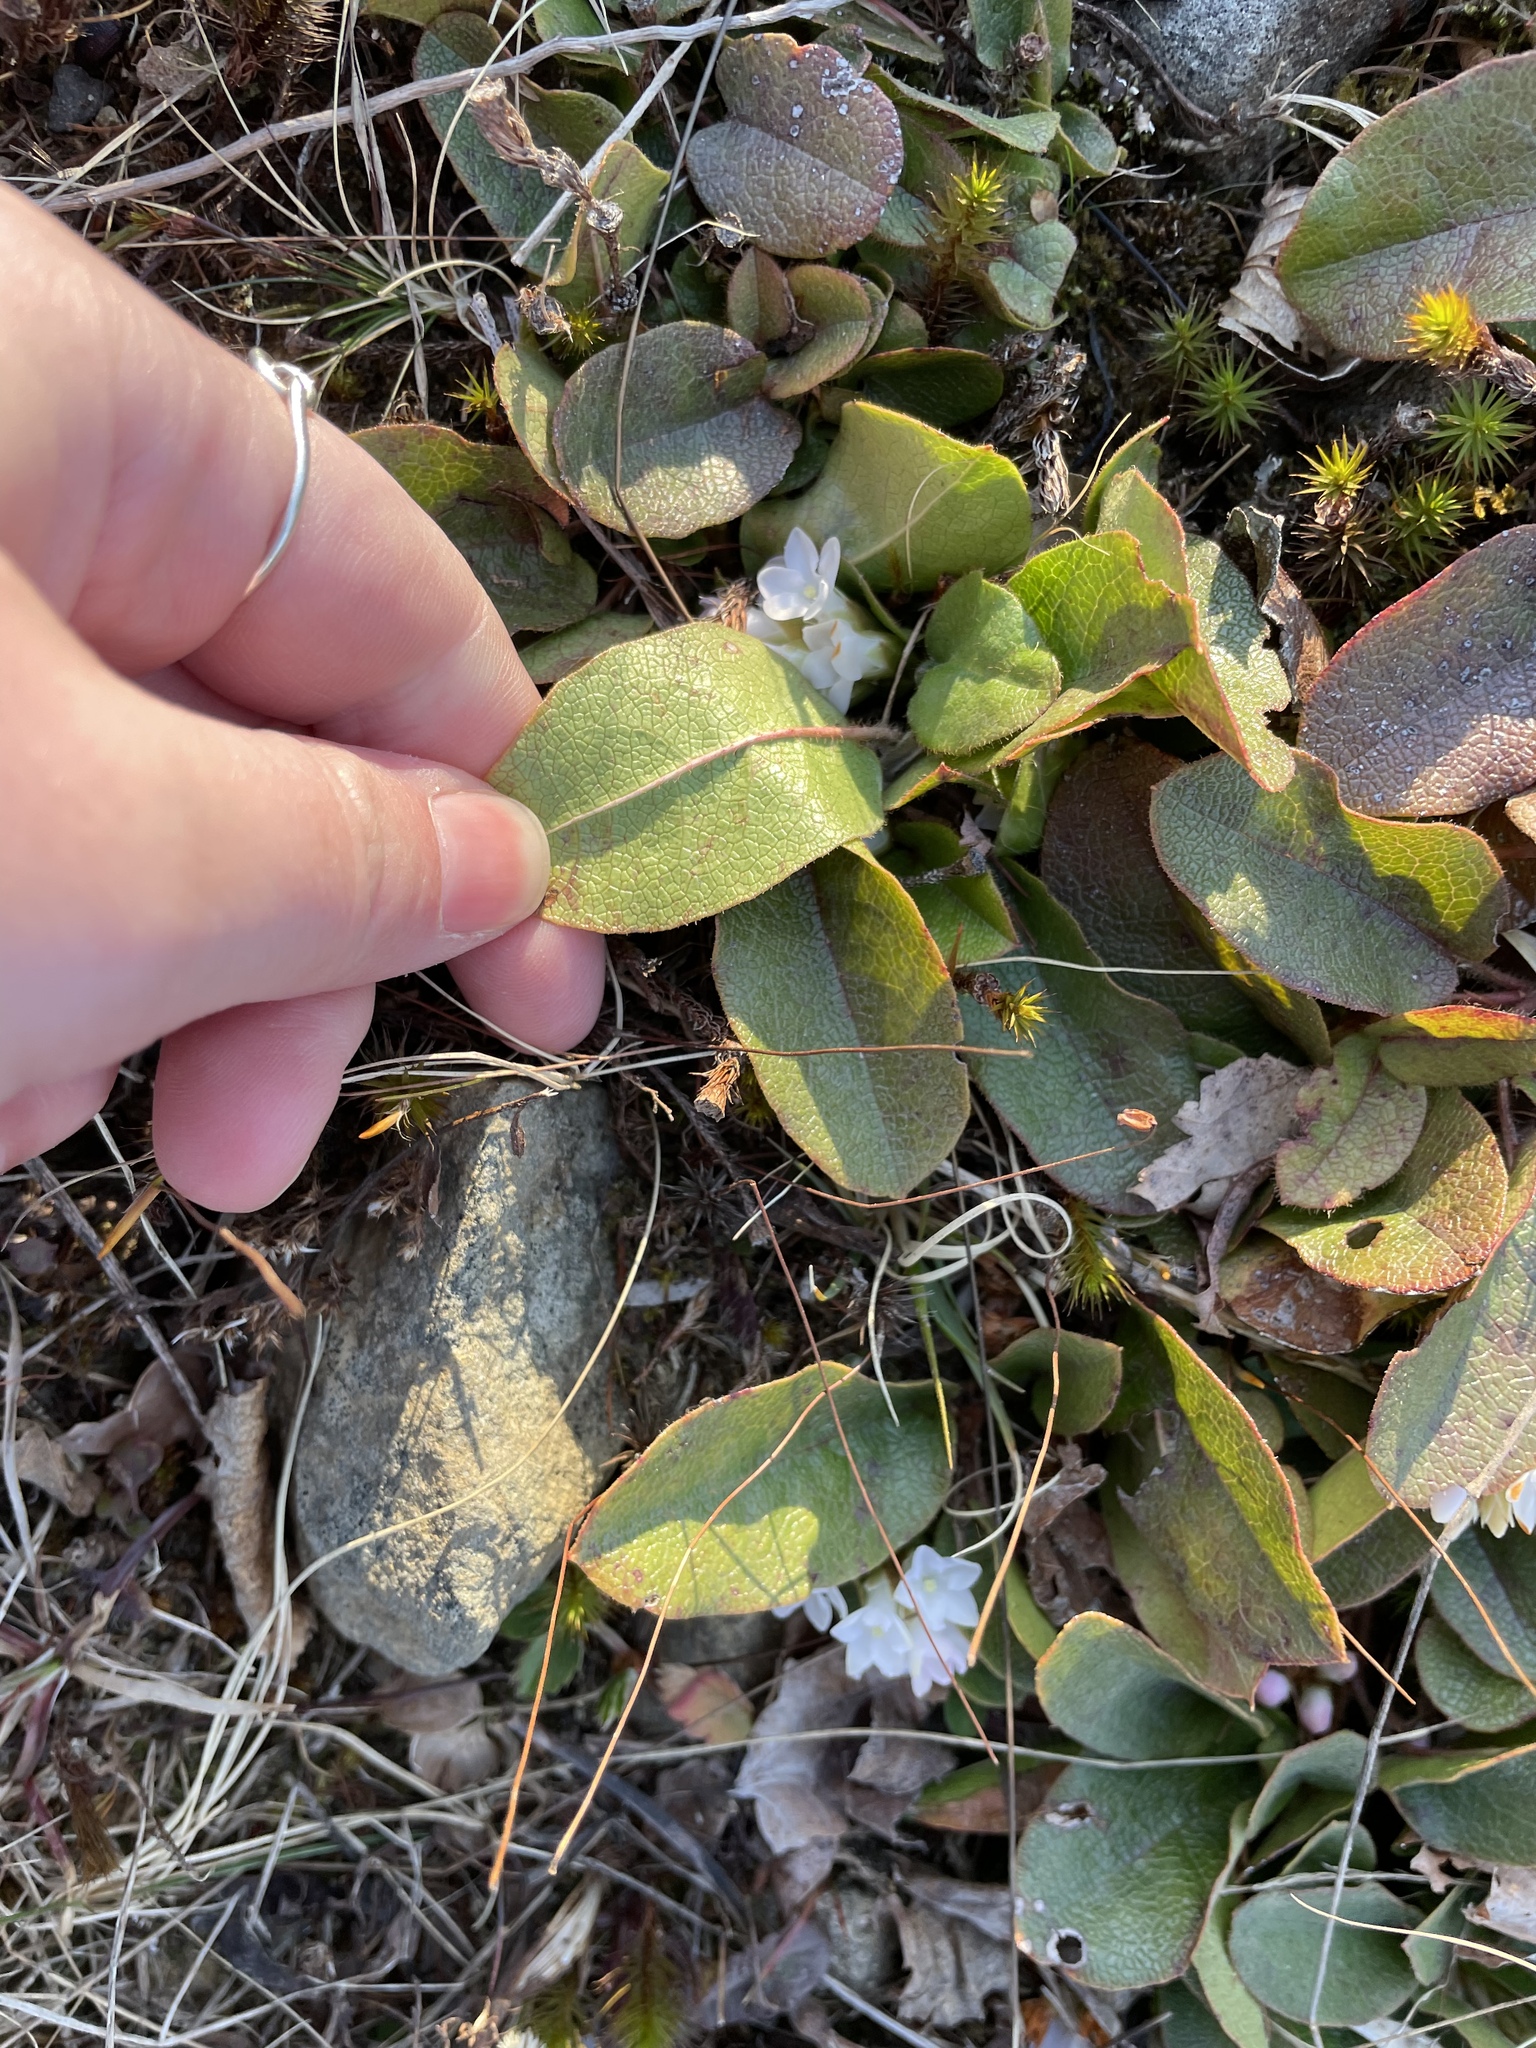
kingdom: Plantae
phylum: Tracheophyta
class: Magnoliopsida
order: Ericales
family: Ericaceae
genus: Epigaea
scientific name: Epigaea repens
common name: Gravelroot
